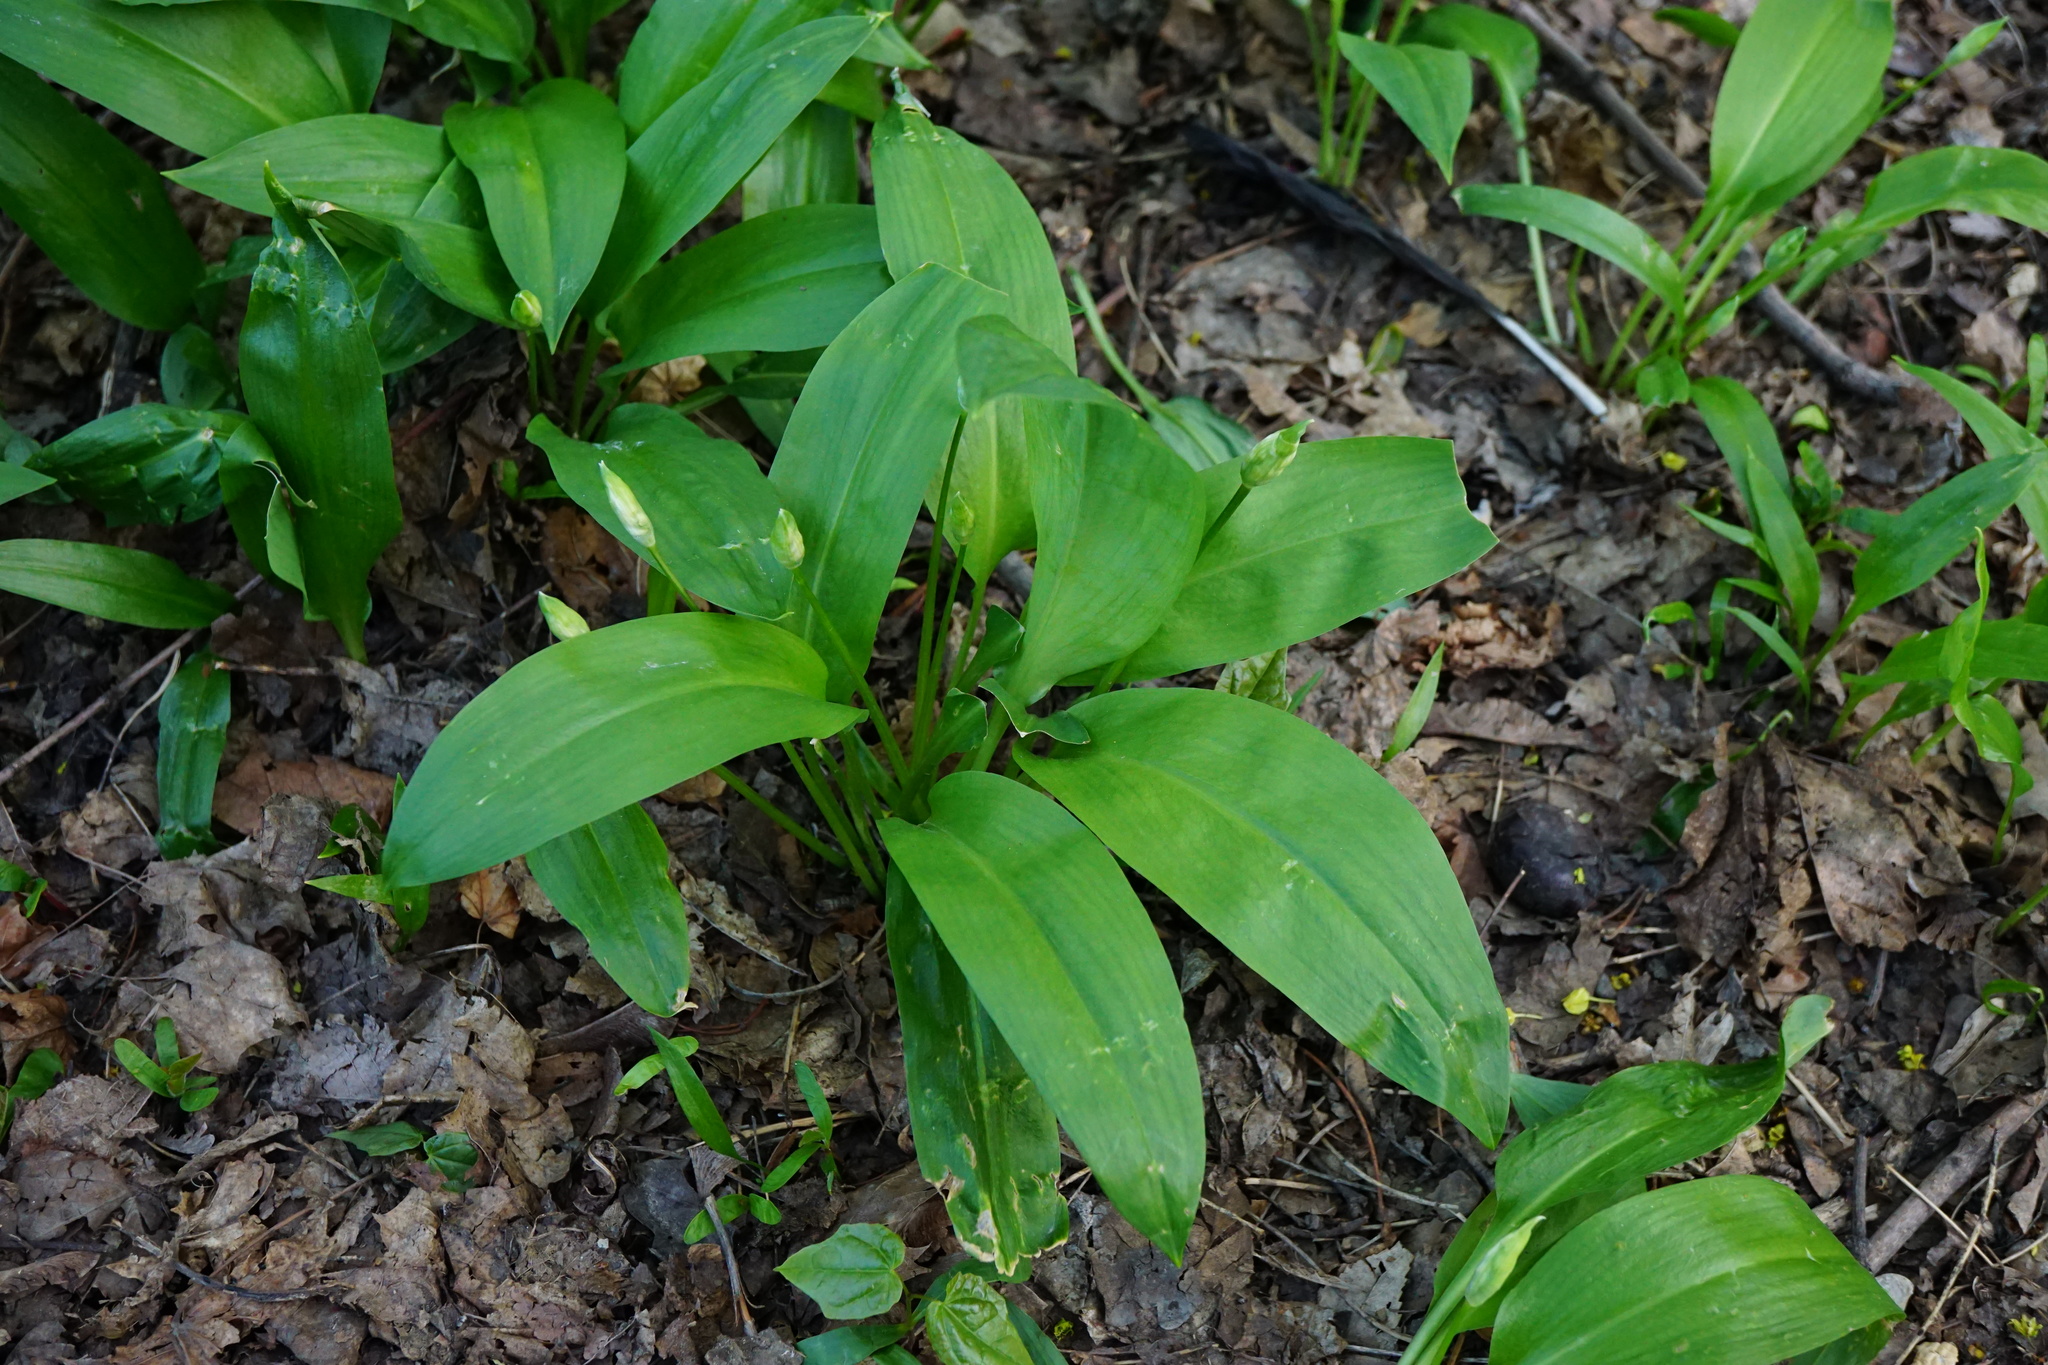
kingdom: Plantae
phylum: Tracheophyta
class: Liliopsida
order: Asparagales
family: Amaryllidaceae
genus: Allium
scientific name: Allium ursinum
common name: Ramsons
